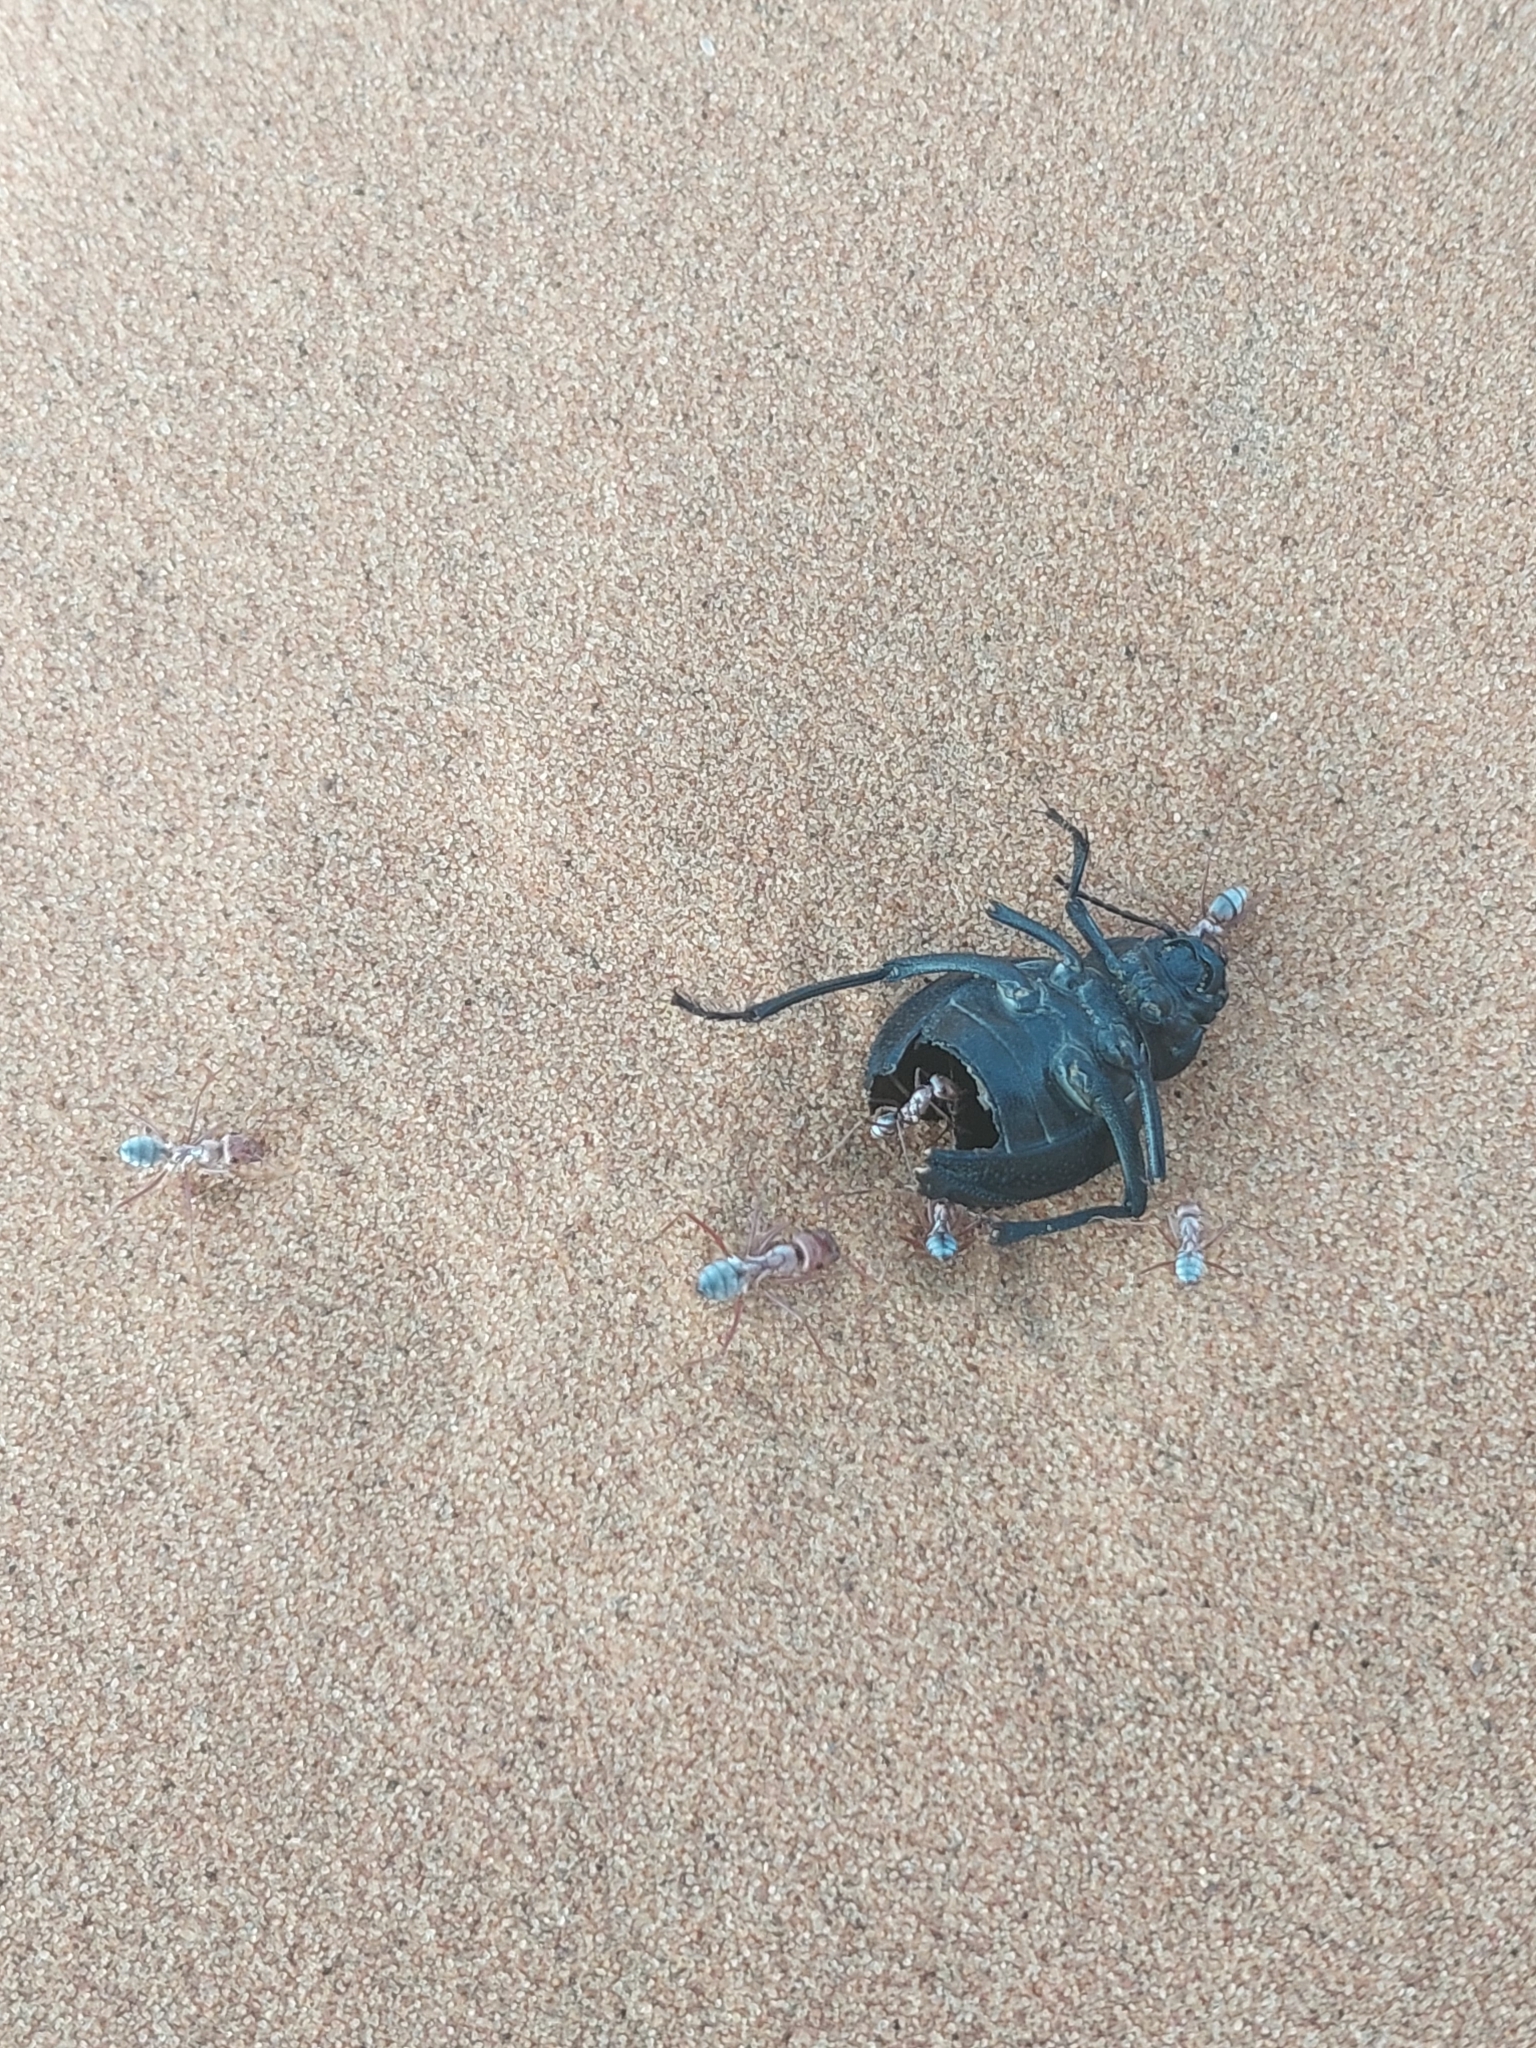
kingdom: Animalia
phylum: Arthropoda
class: Insecta
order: Hymenoptera
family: Formicidae
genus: Cataglyphis
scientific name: Cataglyphis bombycinus
